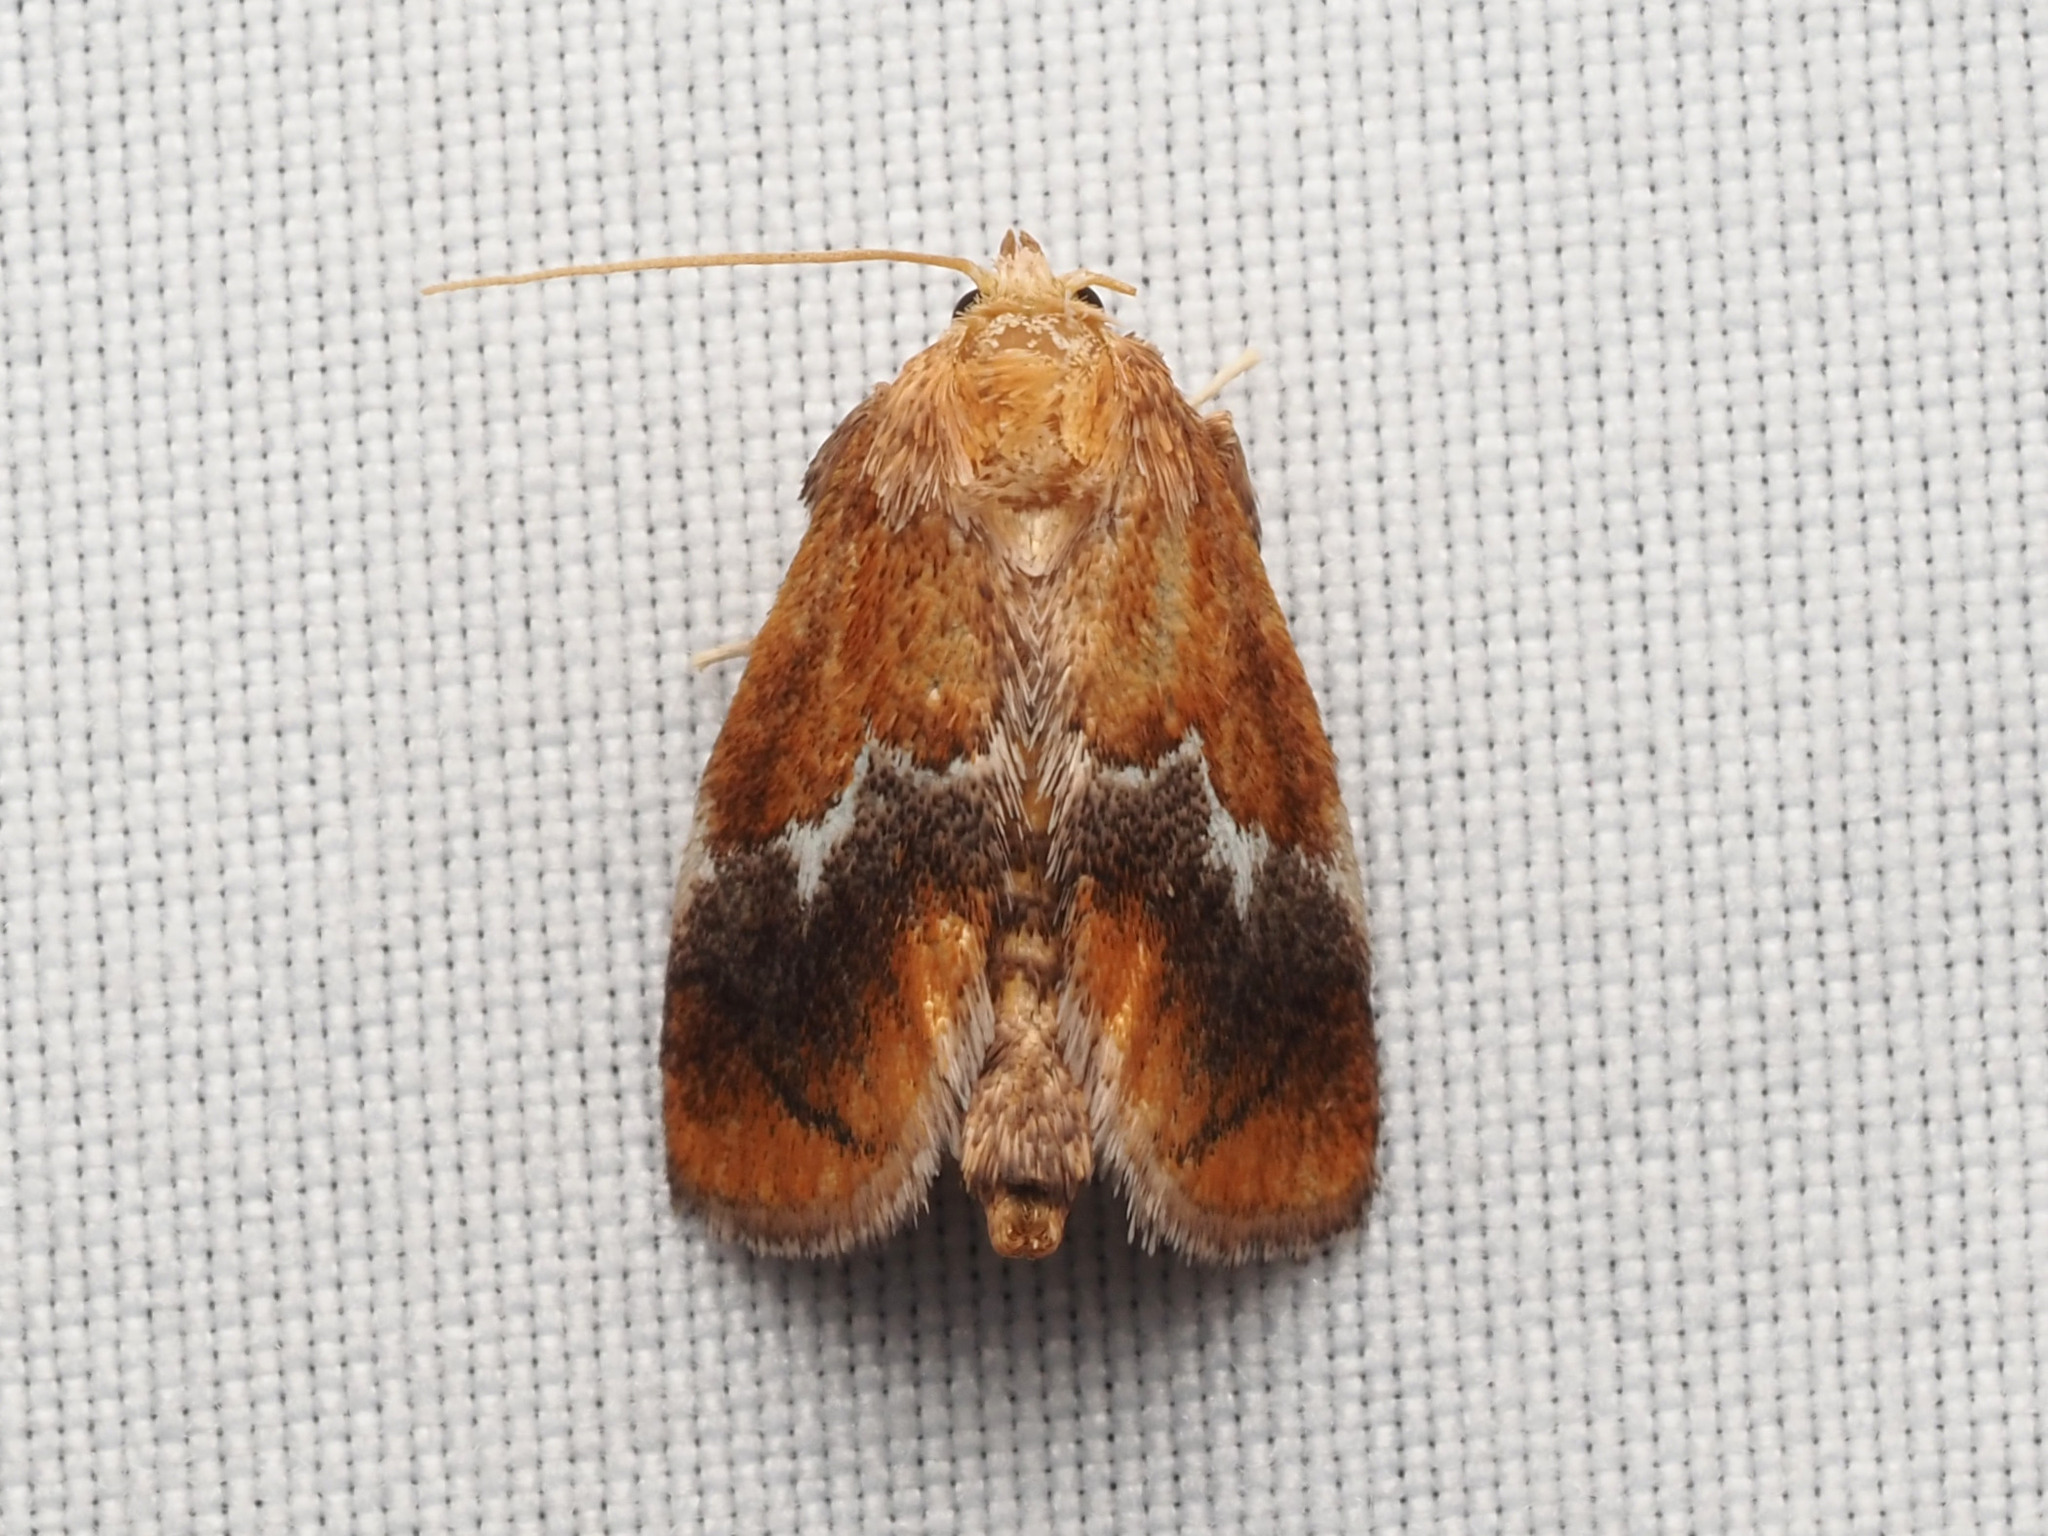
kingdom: Animalia
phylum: Arthropoda
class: Insecta
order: Lepidoptera
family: Limacodidae
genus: Lithacodes
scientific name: Lithacodes fasciola
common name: Yellow-shouldered slug moth
